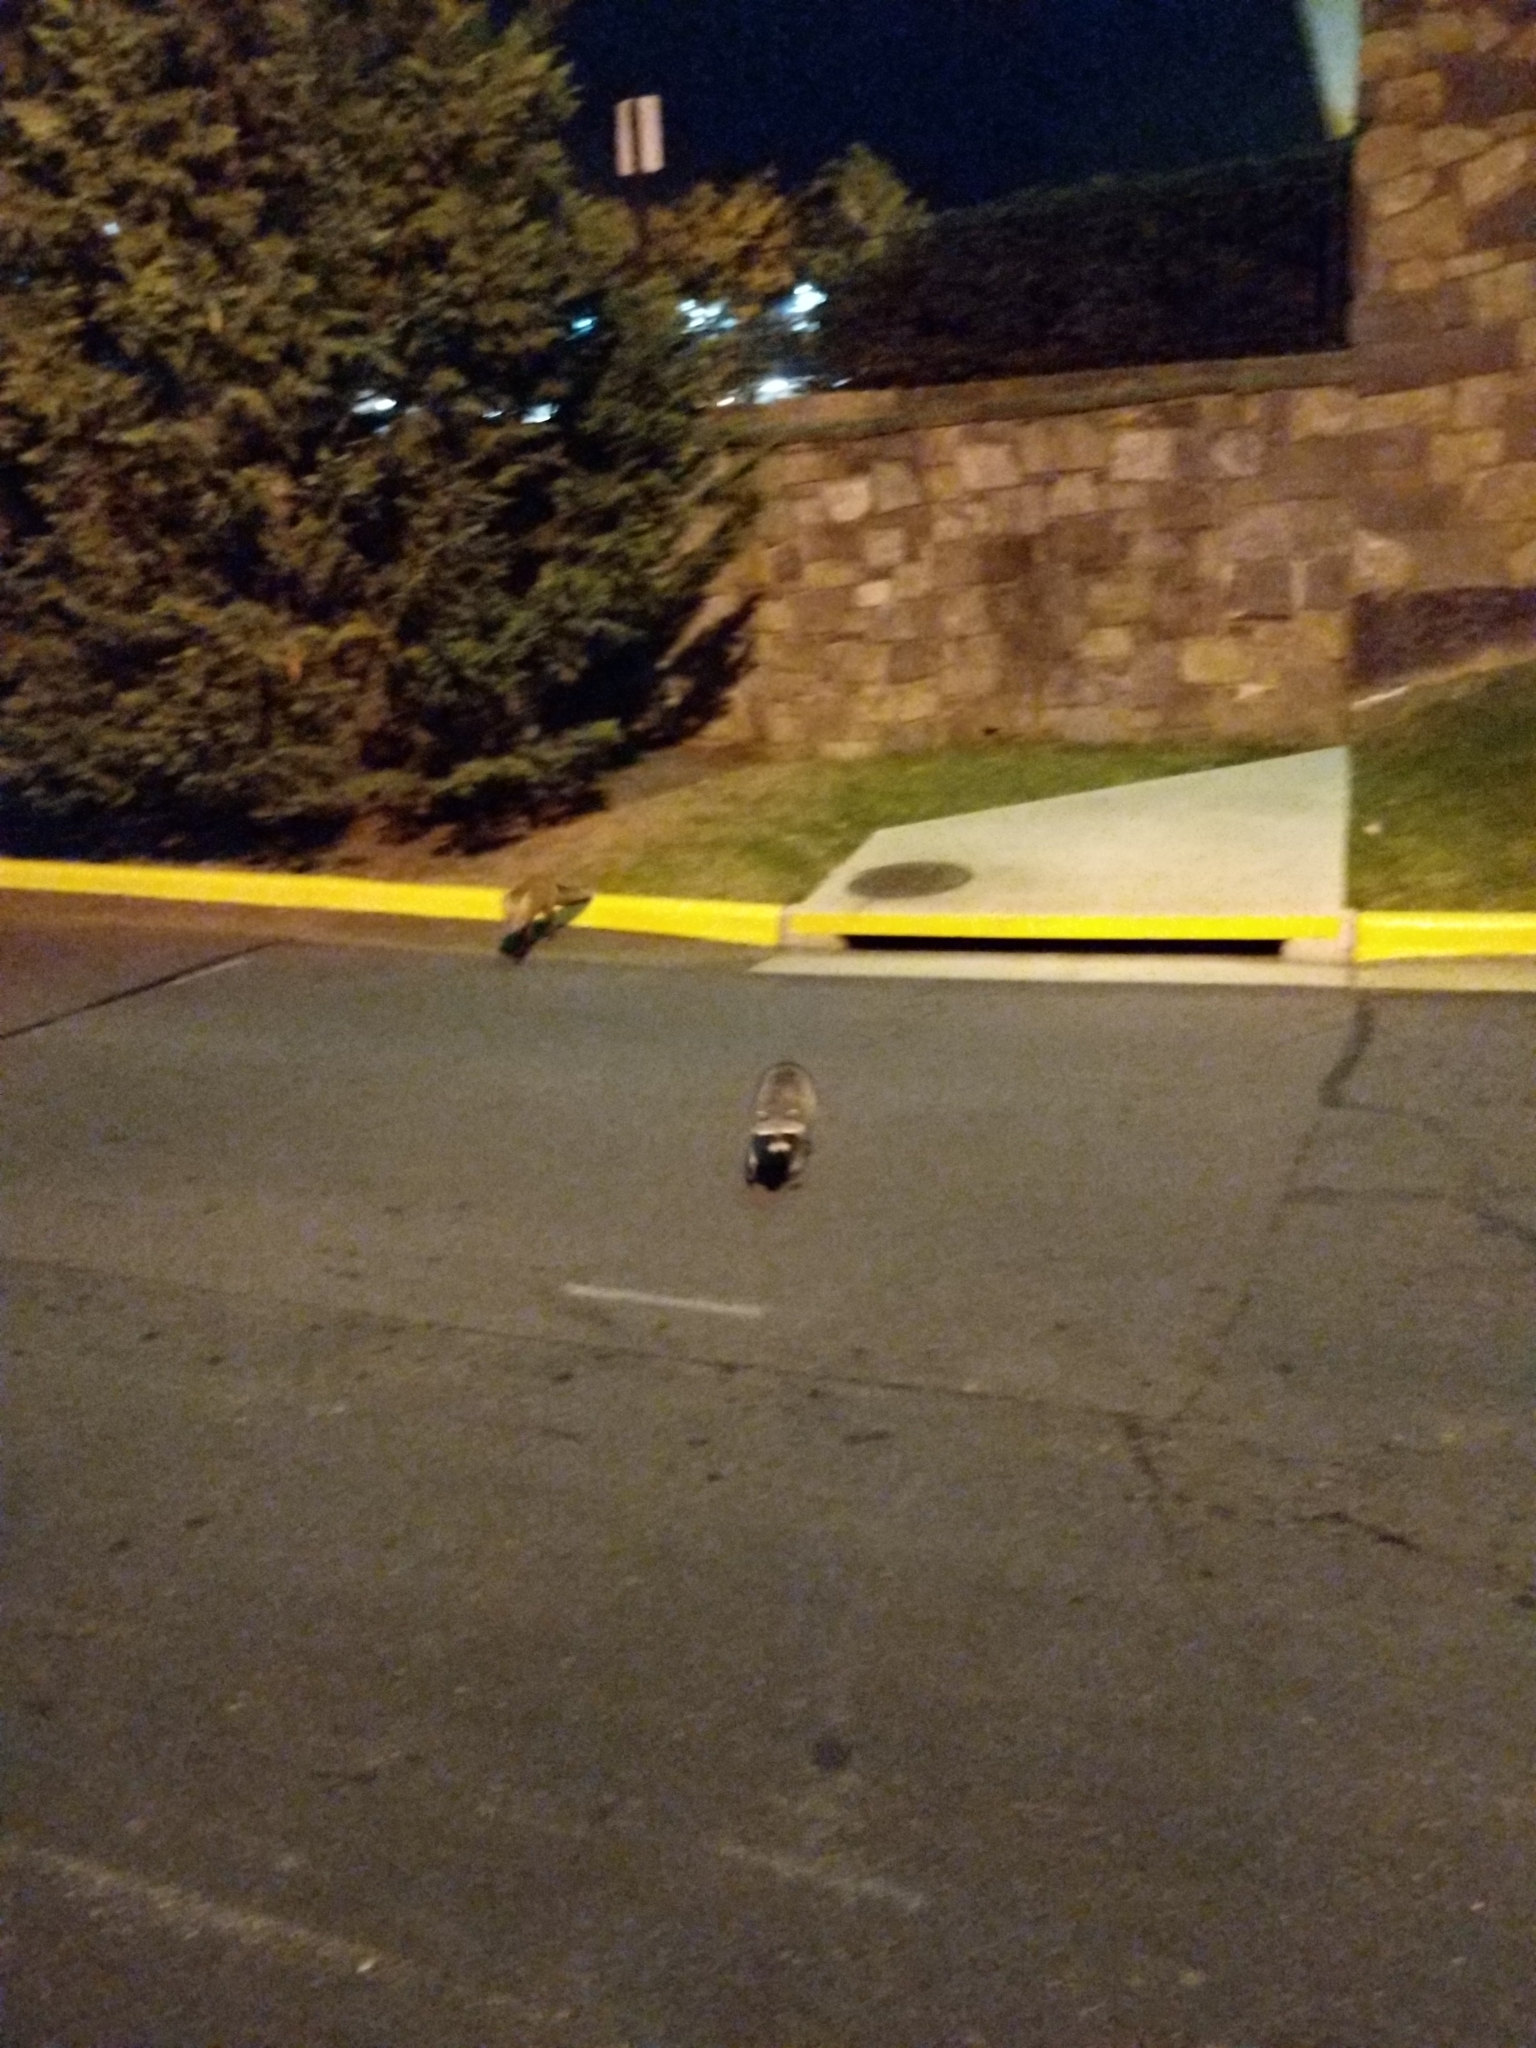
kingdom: Animalia
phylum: Chordata
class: Mammalia
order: Carnivora
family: Procyonidae
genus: Procyon
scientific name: Procyon lotor
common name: Raccoon
